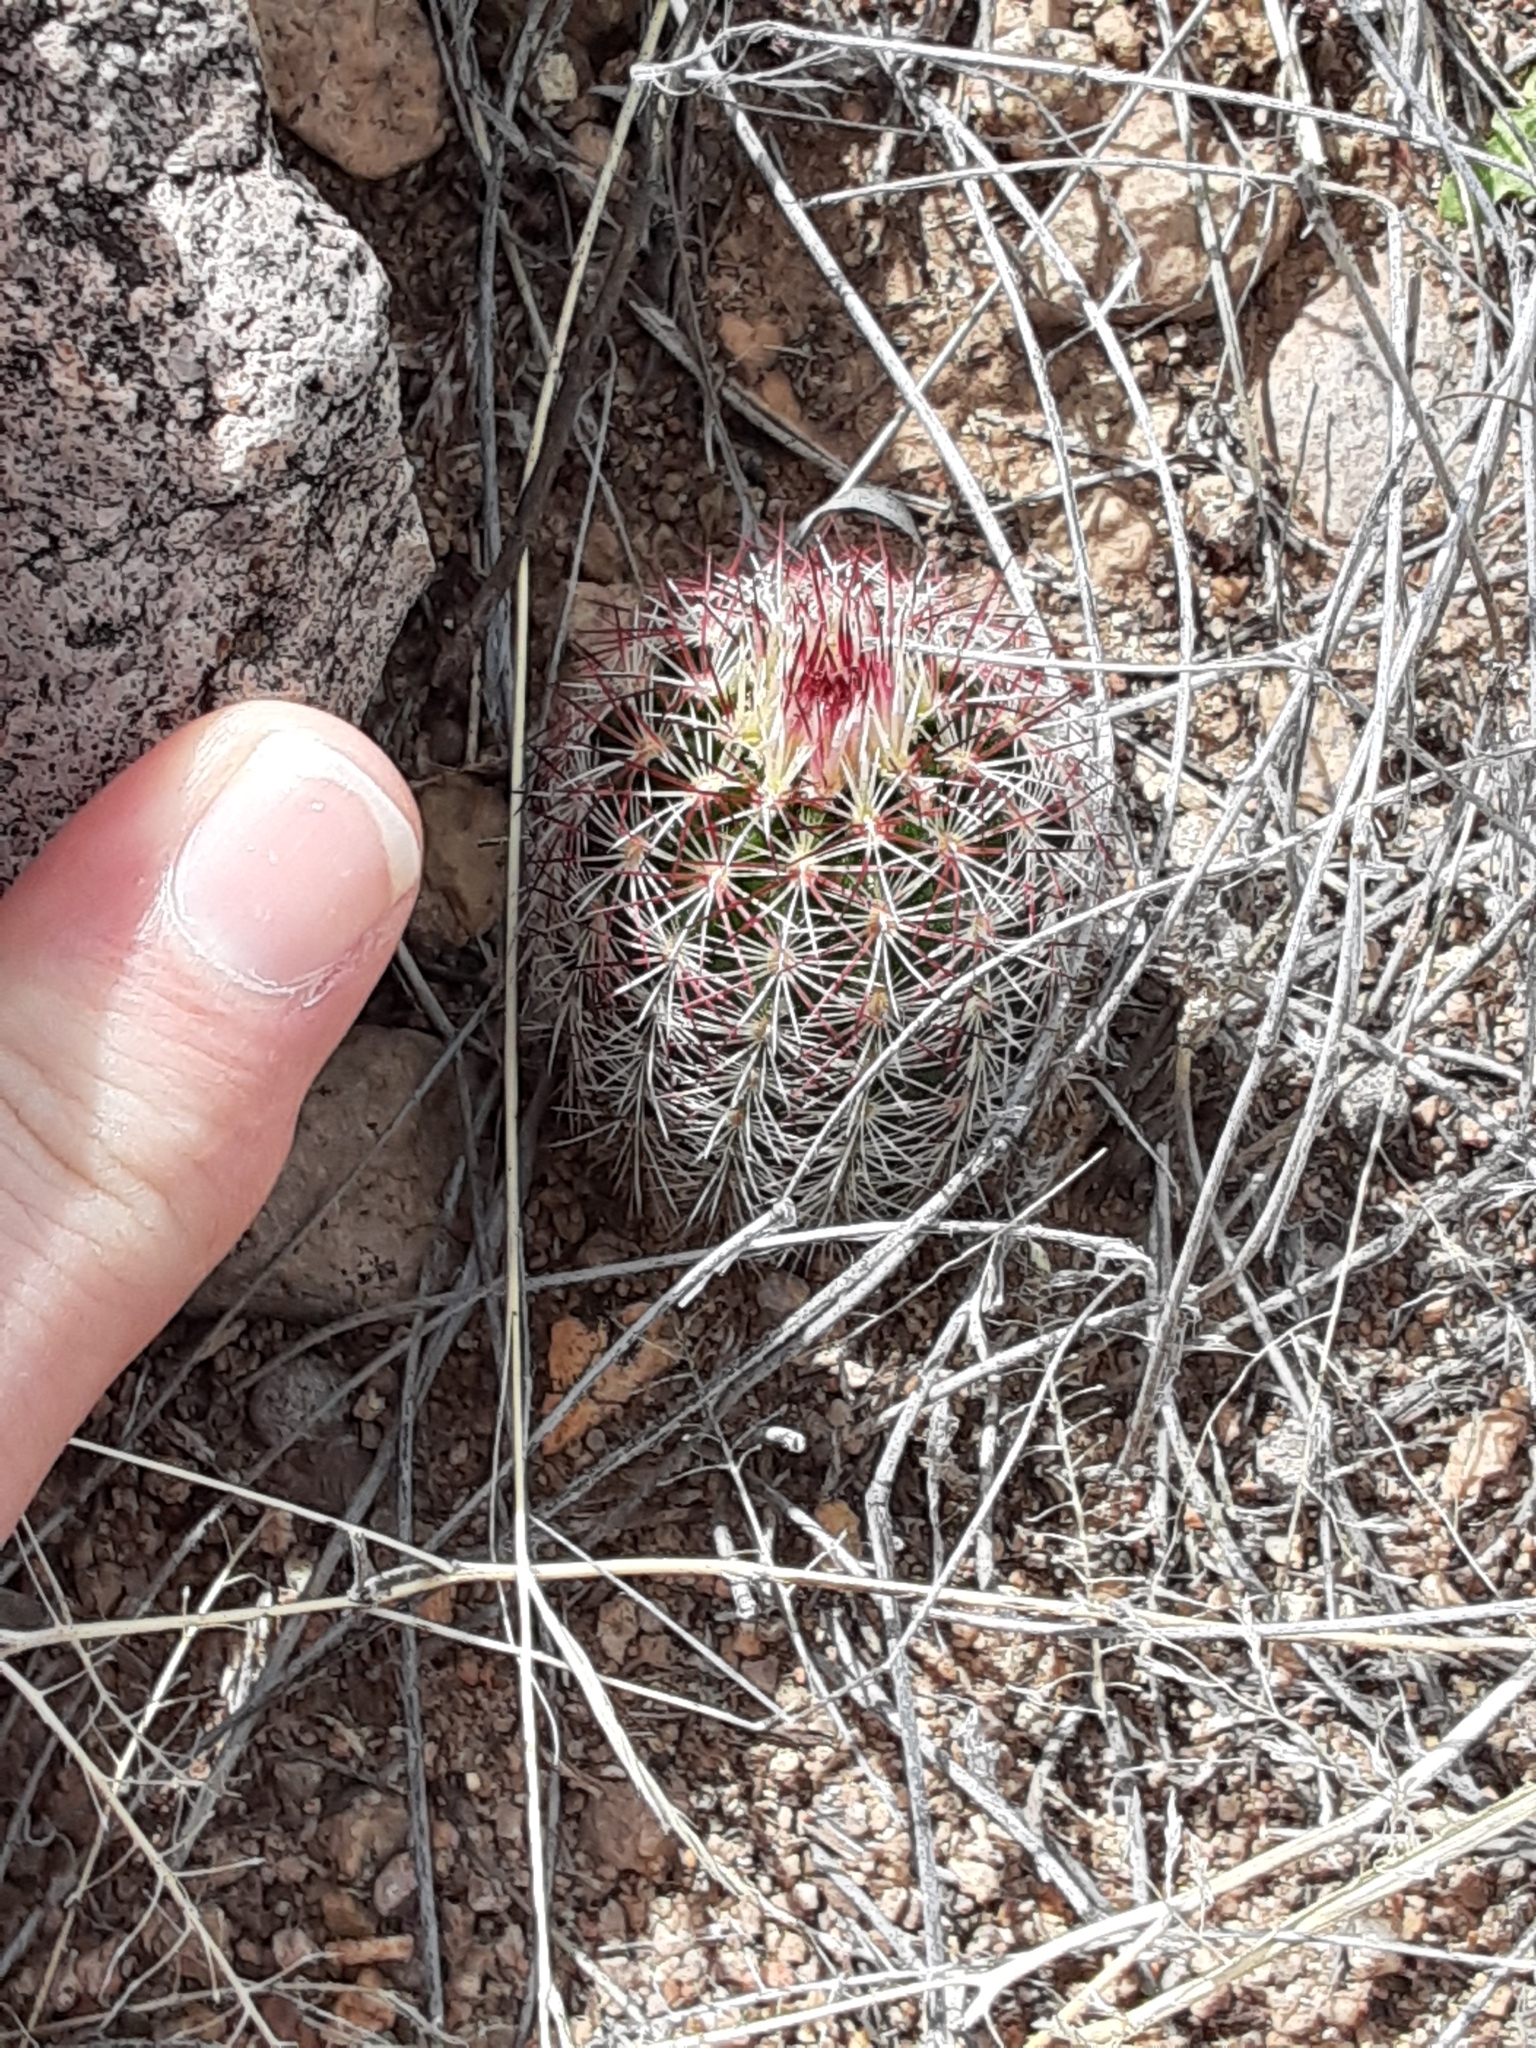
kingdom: Plantae
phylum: Tracheophyta
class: Magnoliopsida
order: Caryophyllales
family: Cactaceae
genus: Echinocereus
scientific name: Echinocereus viridiflorus
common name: Nylon hedgehog cactus
